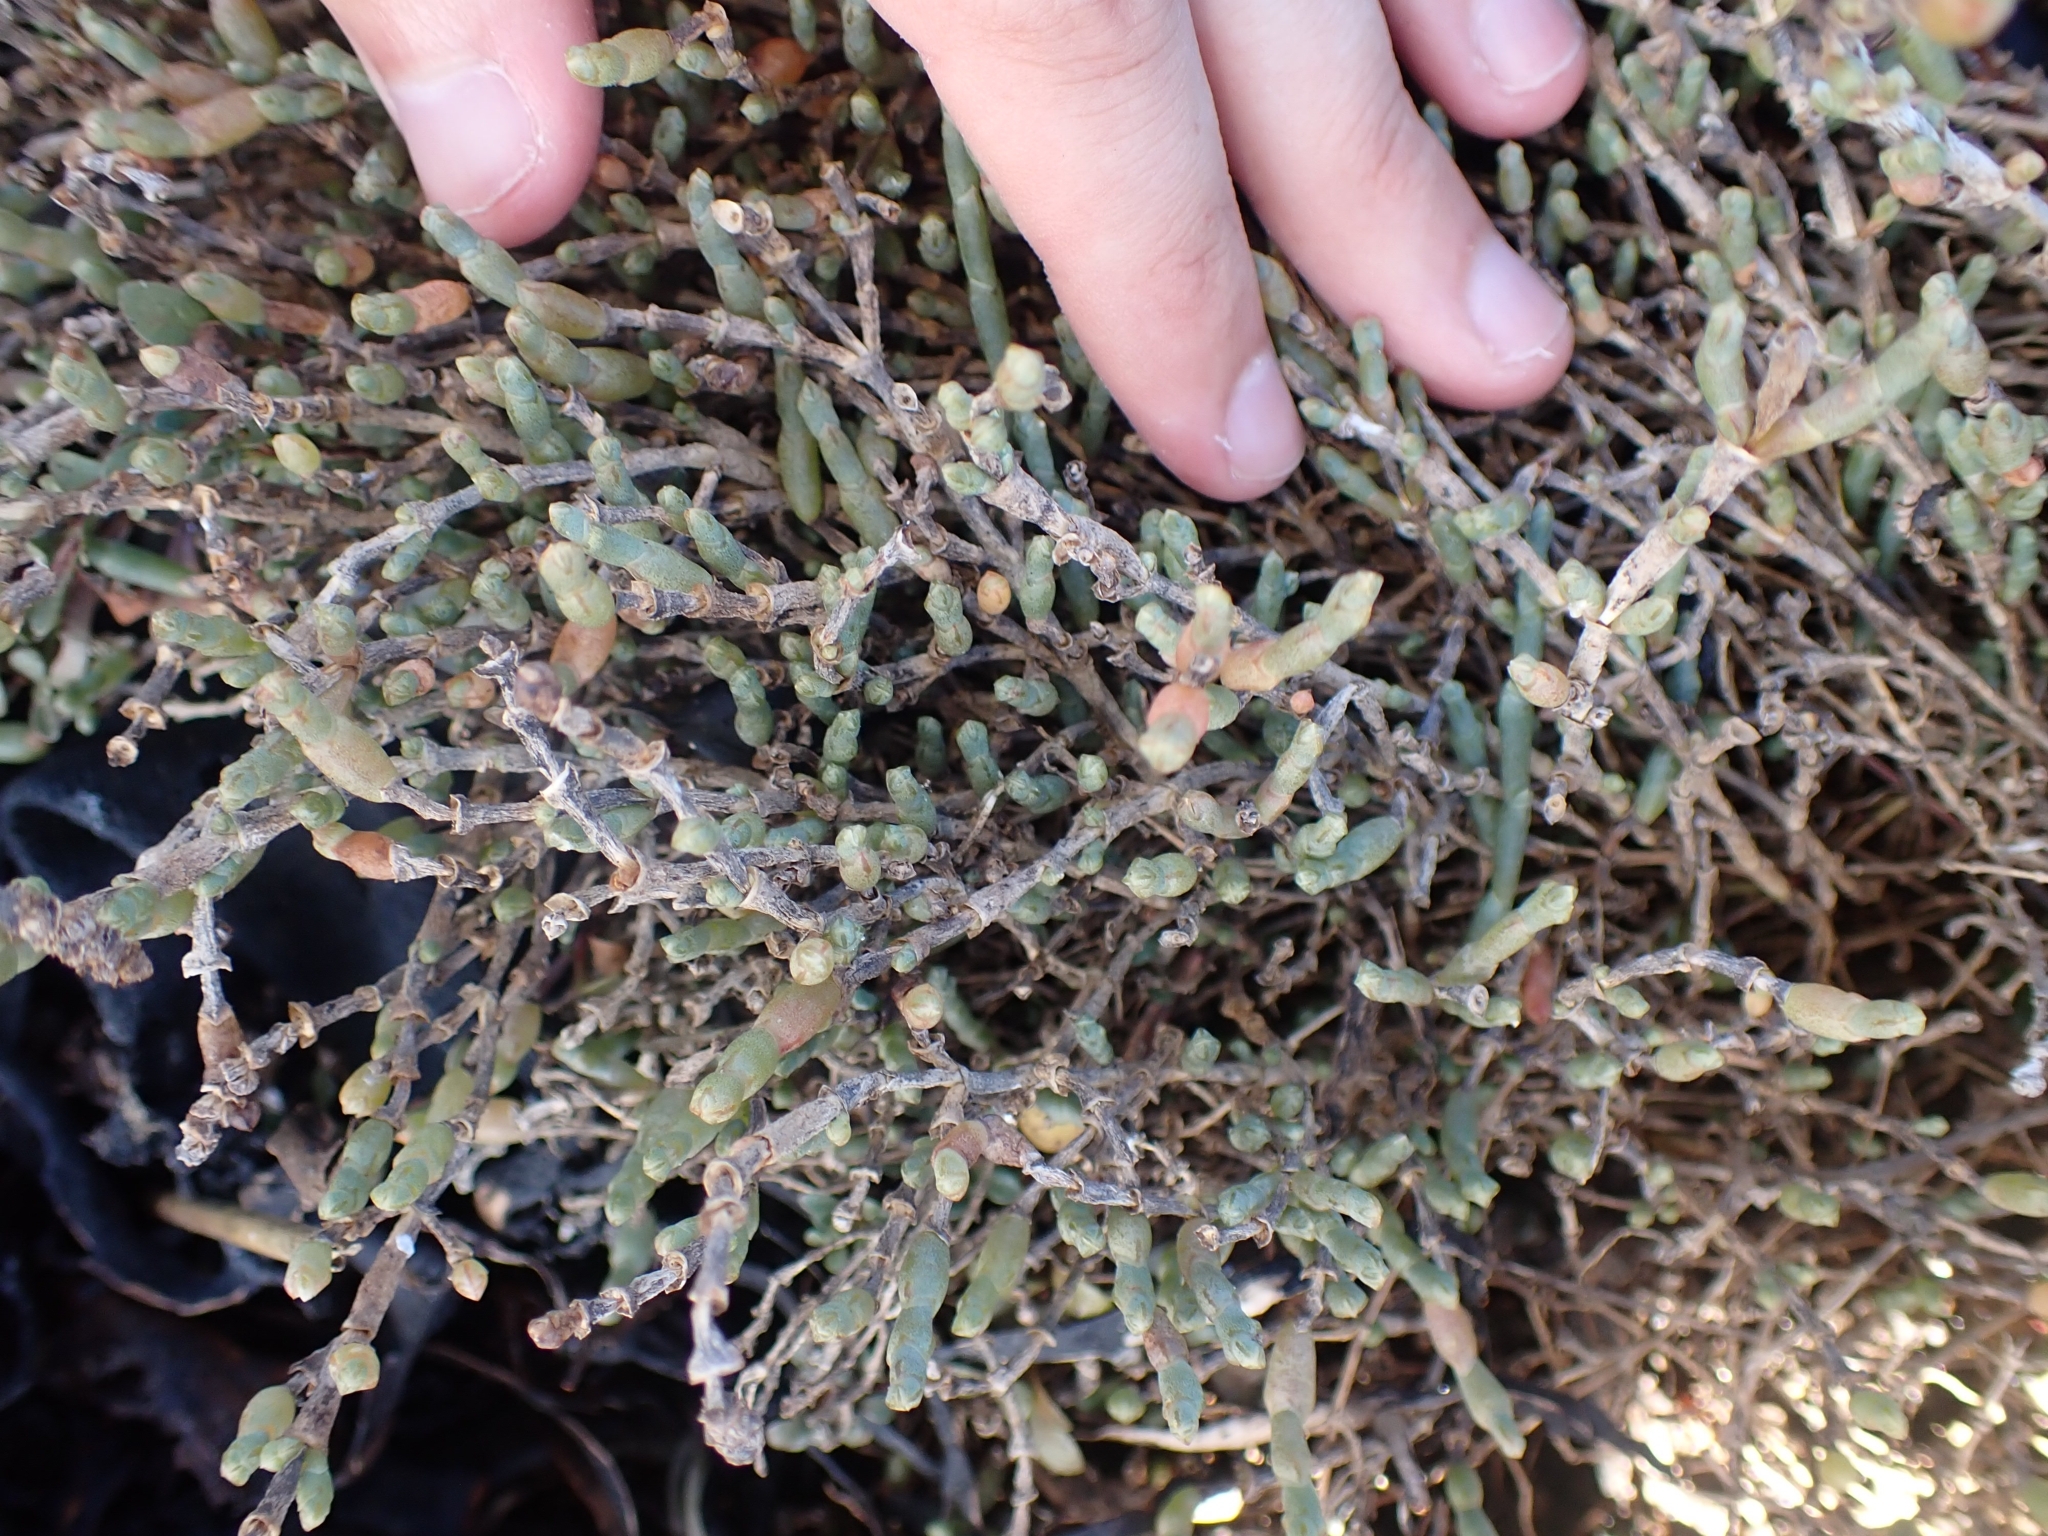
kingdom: Plantae
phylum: Tracheophyta
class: Magnoliopsida
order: Caryophyllales
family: Amaranthaceae
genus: Salicornia
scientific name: Salicornia quinqueflora
